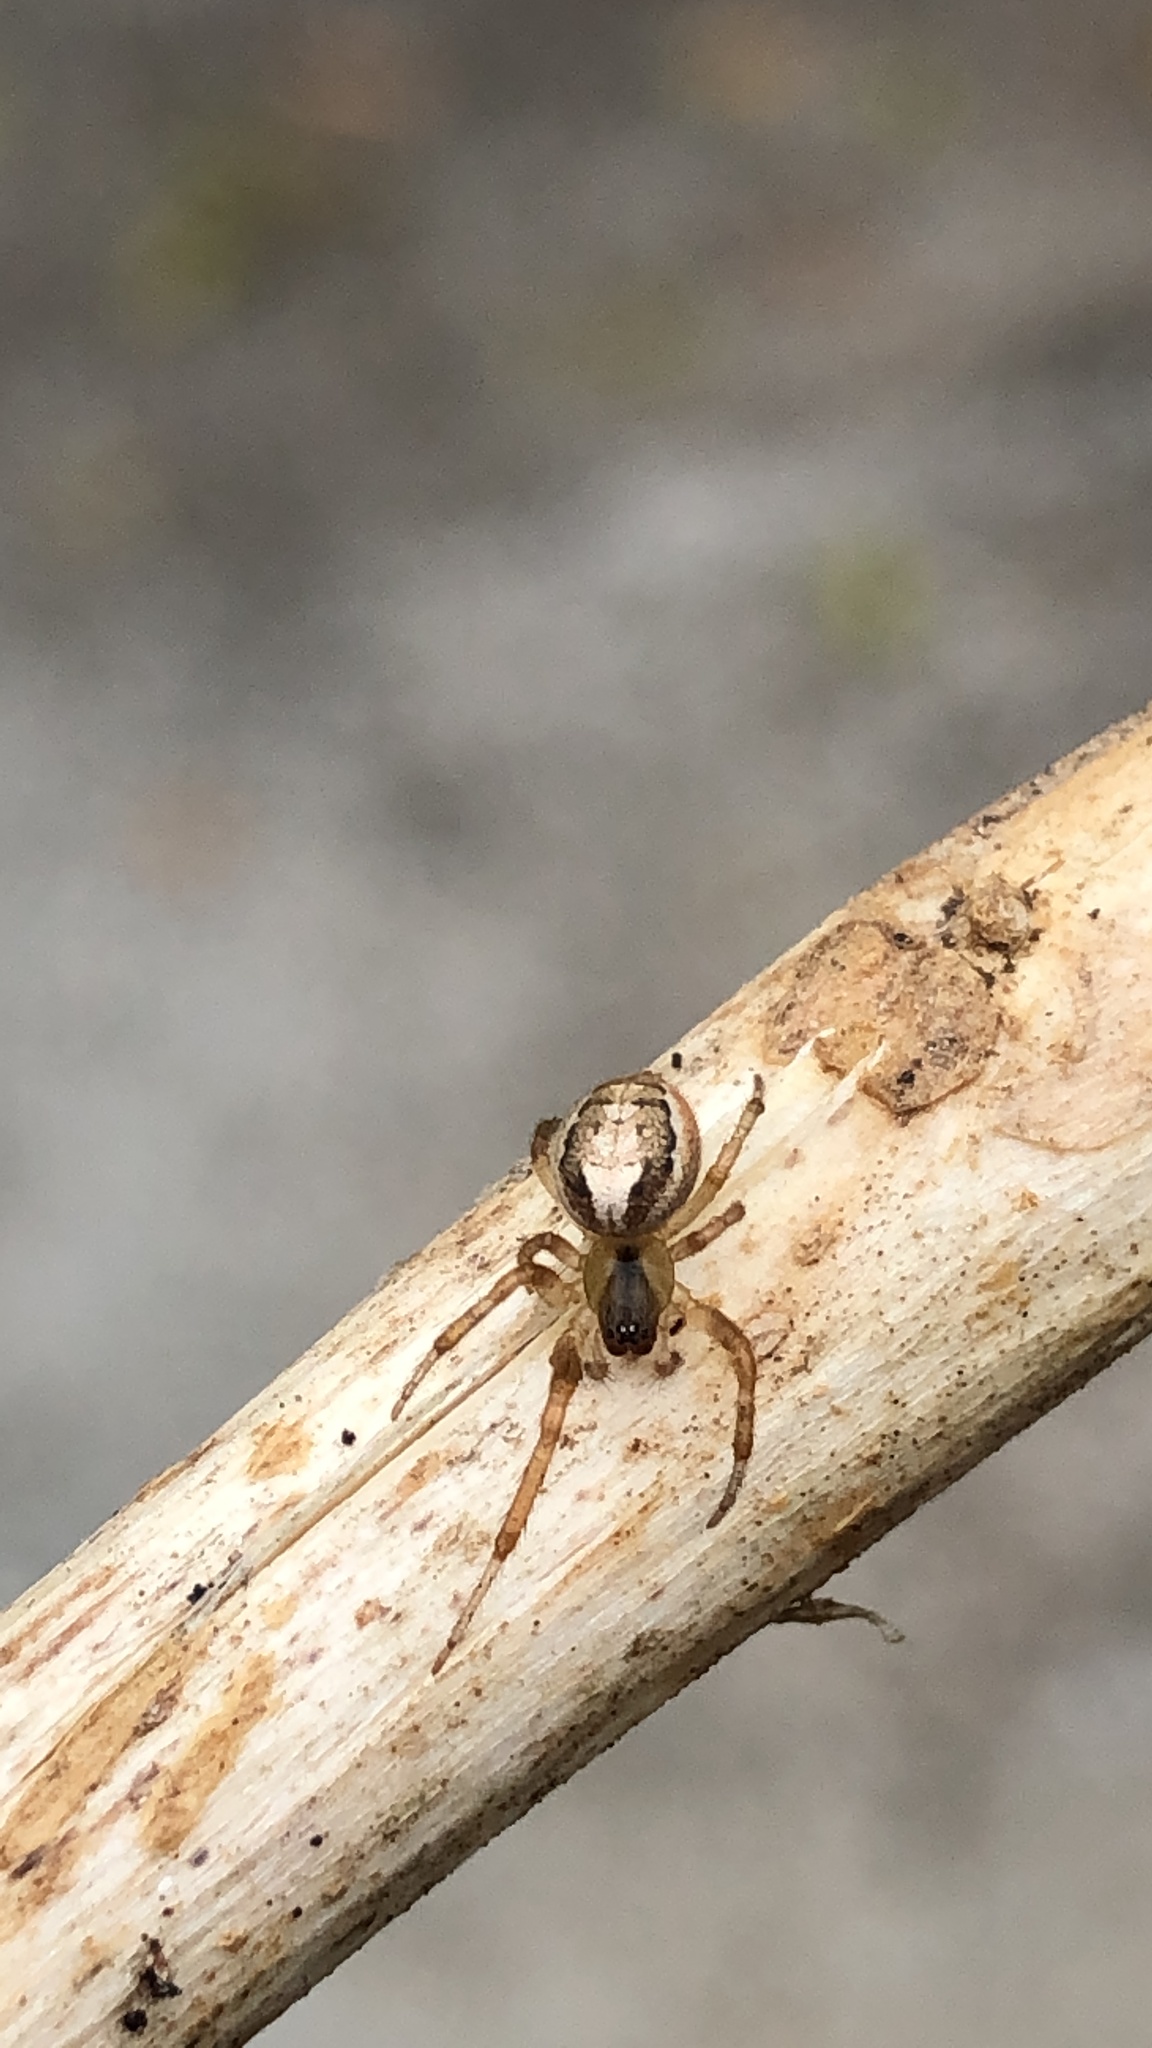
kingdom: Animalia
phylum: Arthropoda
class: Arachnida
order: Araneae
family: Araneidae
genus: Zygiella
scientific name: Zygiella x-notata
